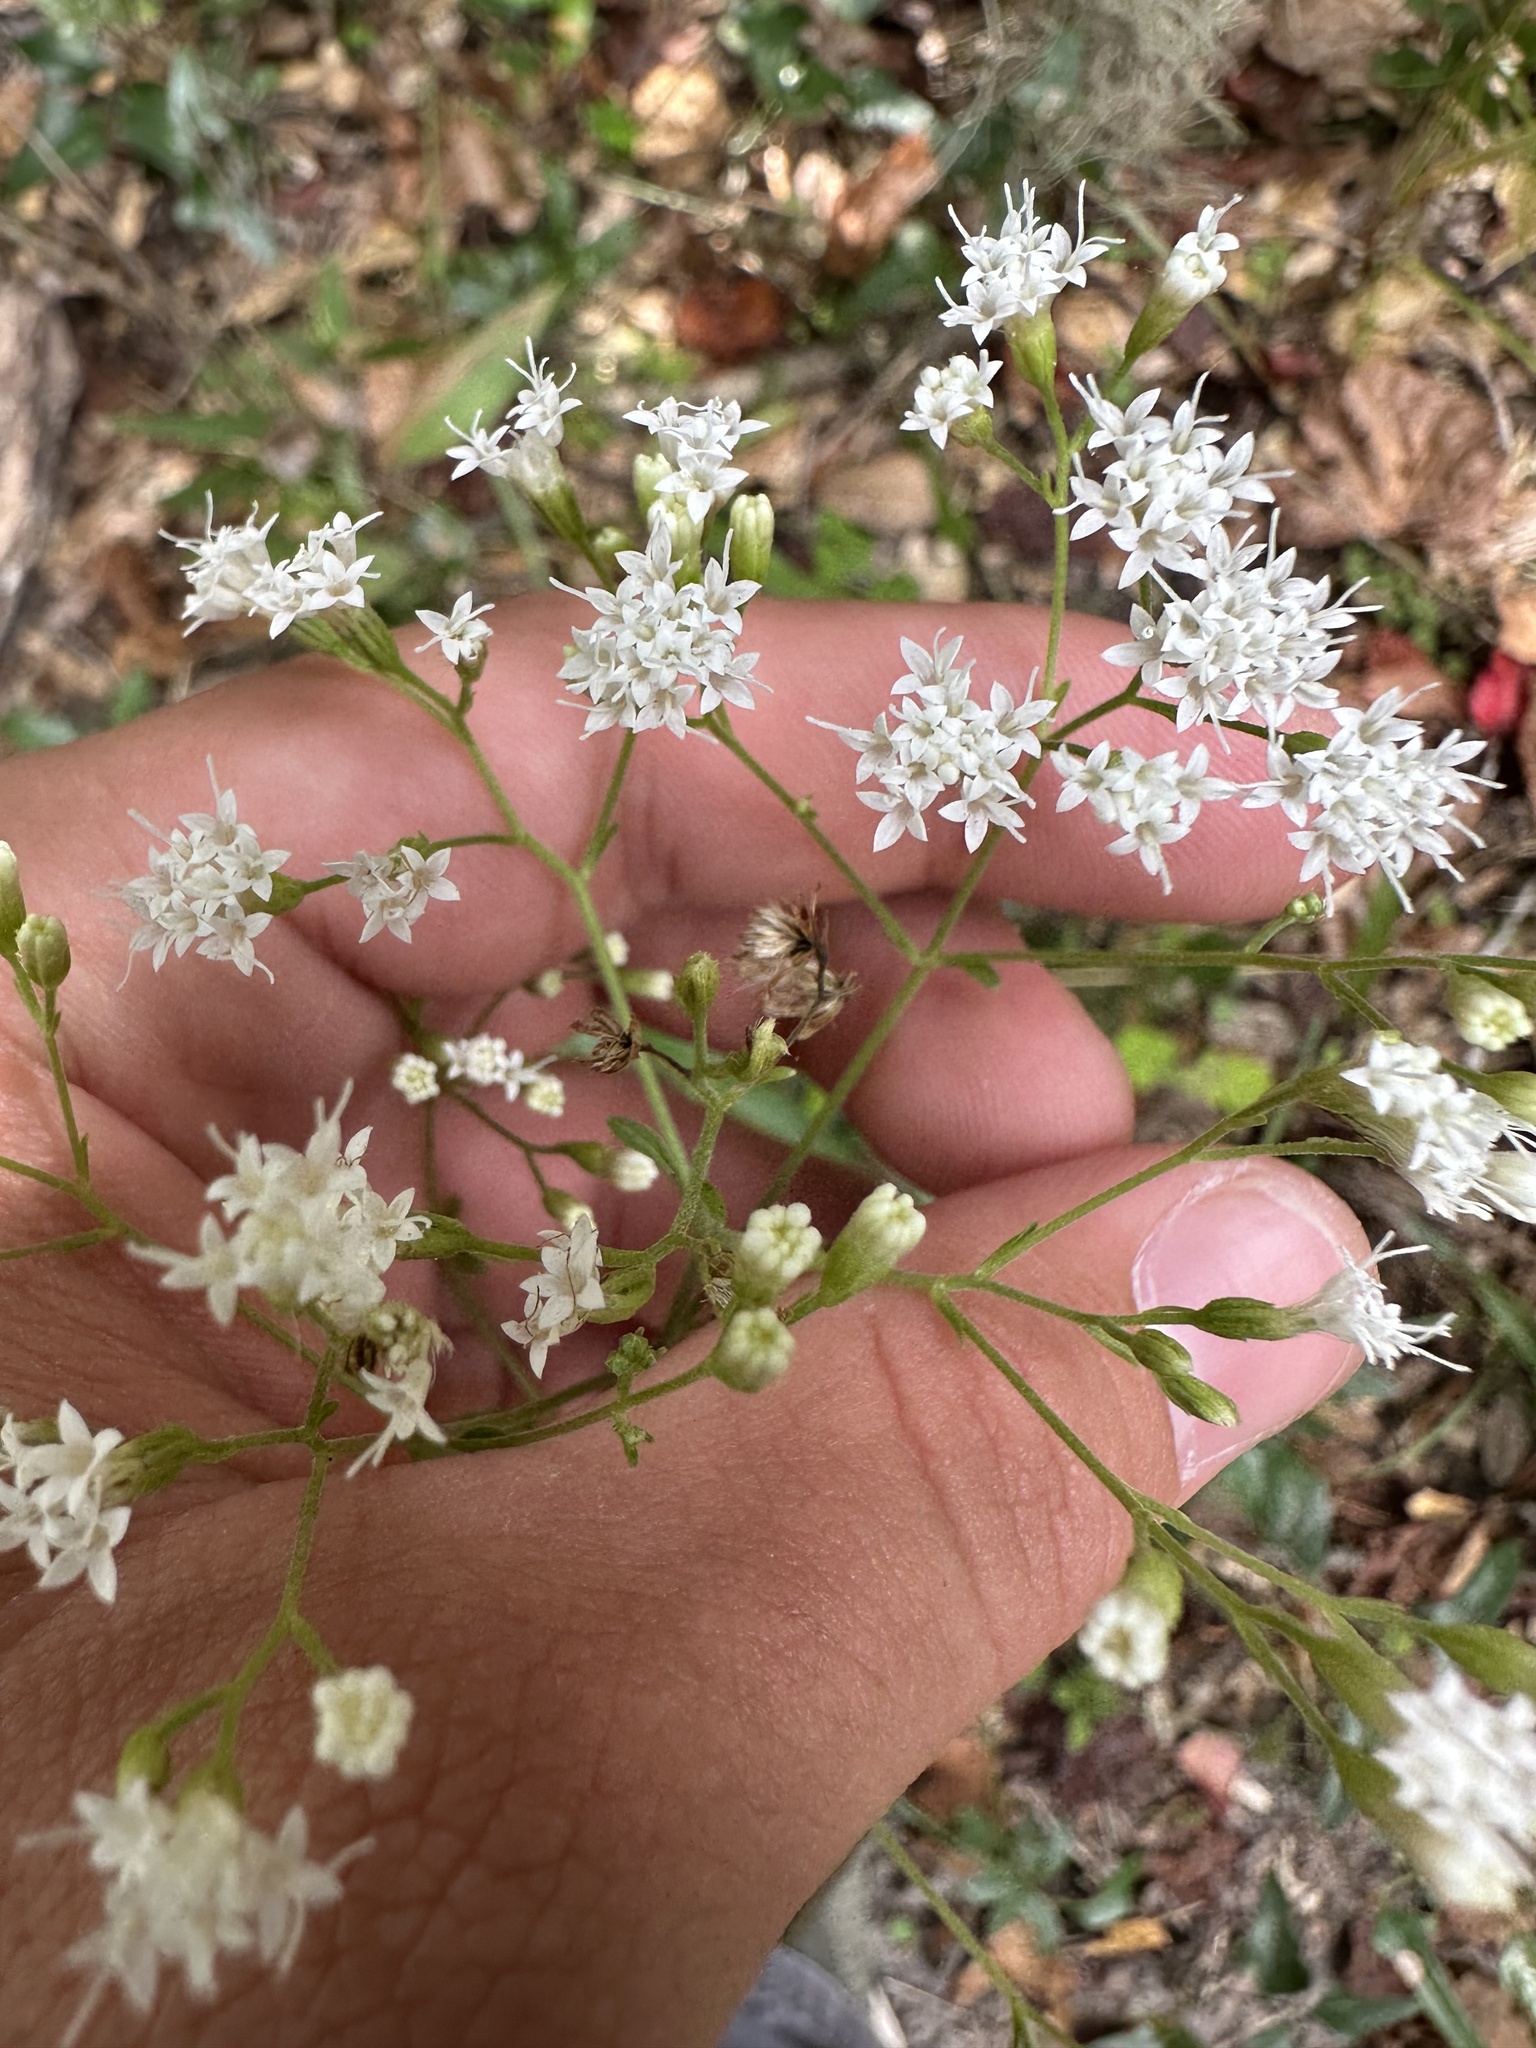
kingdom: Plantae
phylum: Tracheophyta
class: Magnoliopsida
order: Asterales
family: Asteraceae
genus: Ageratina
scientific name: Ageratina jucunda
